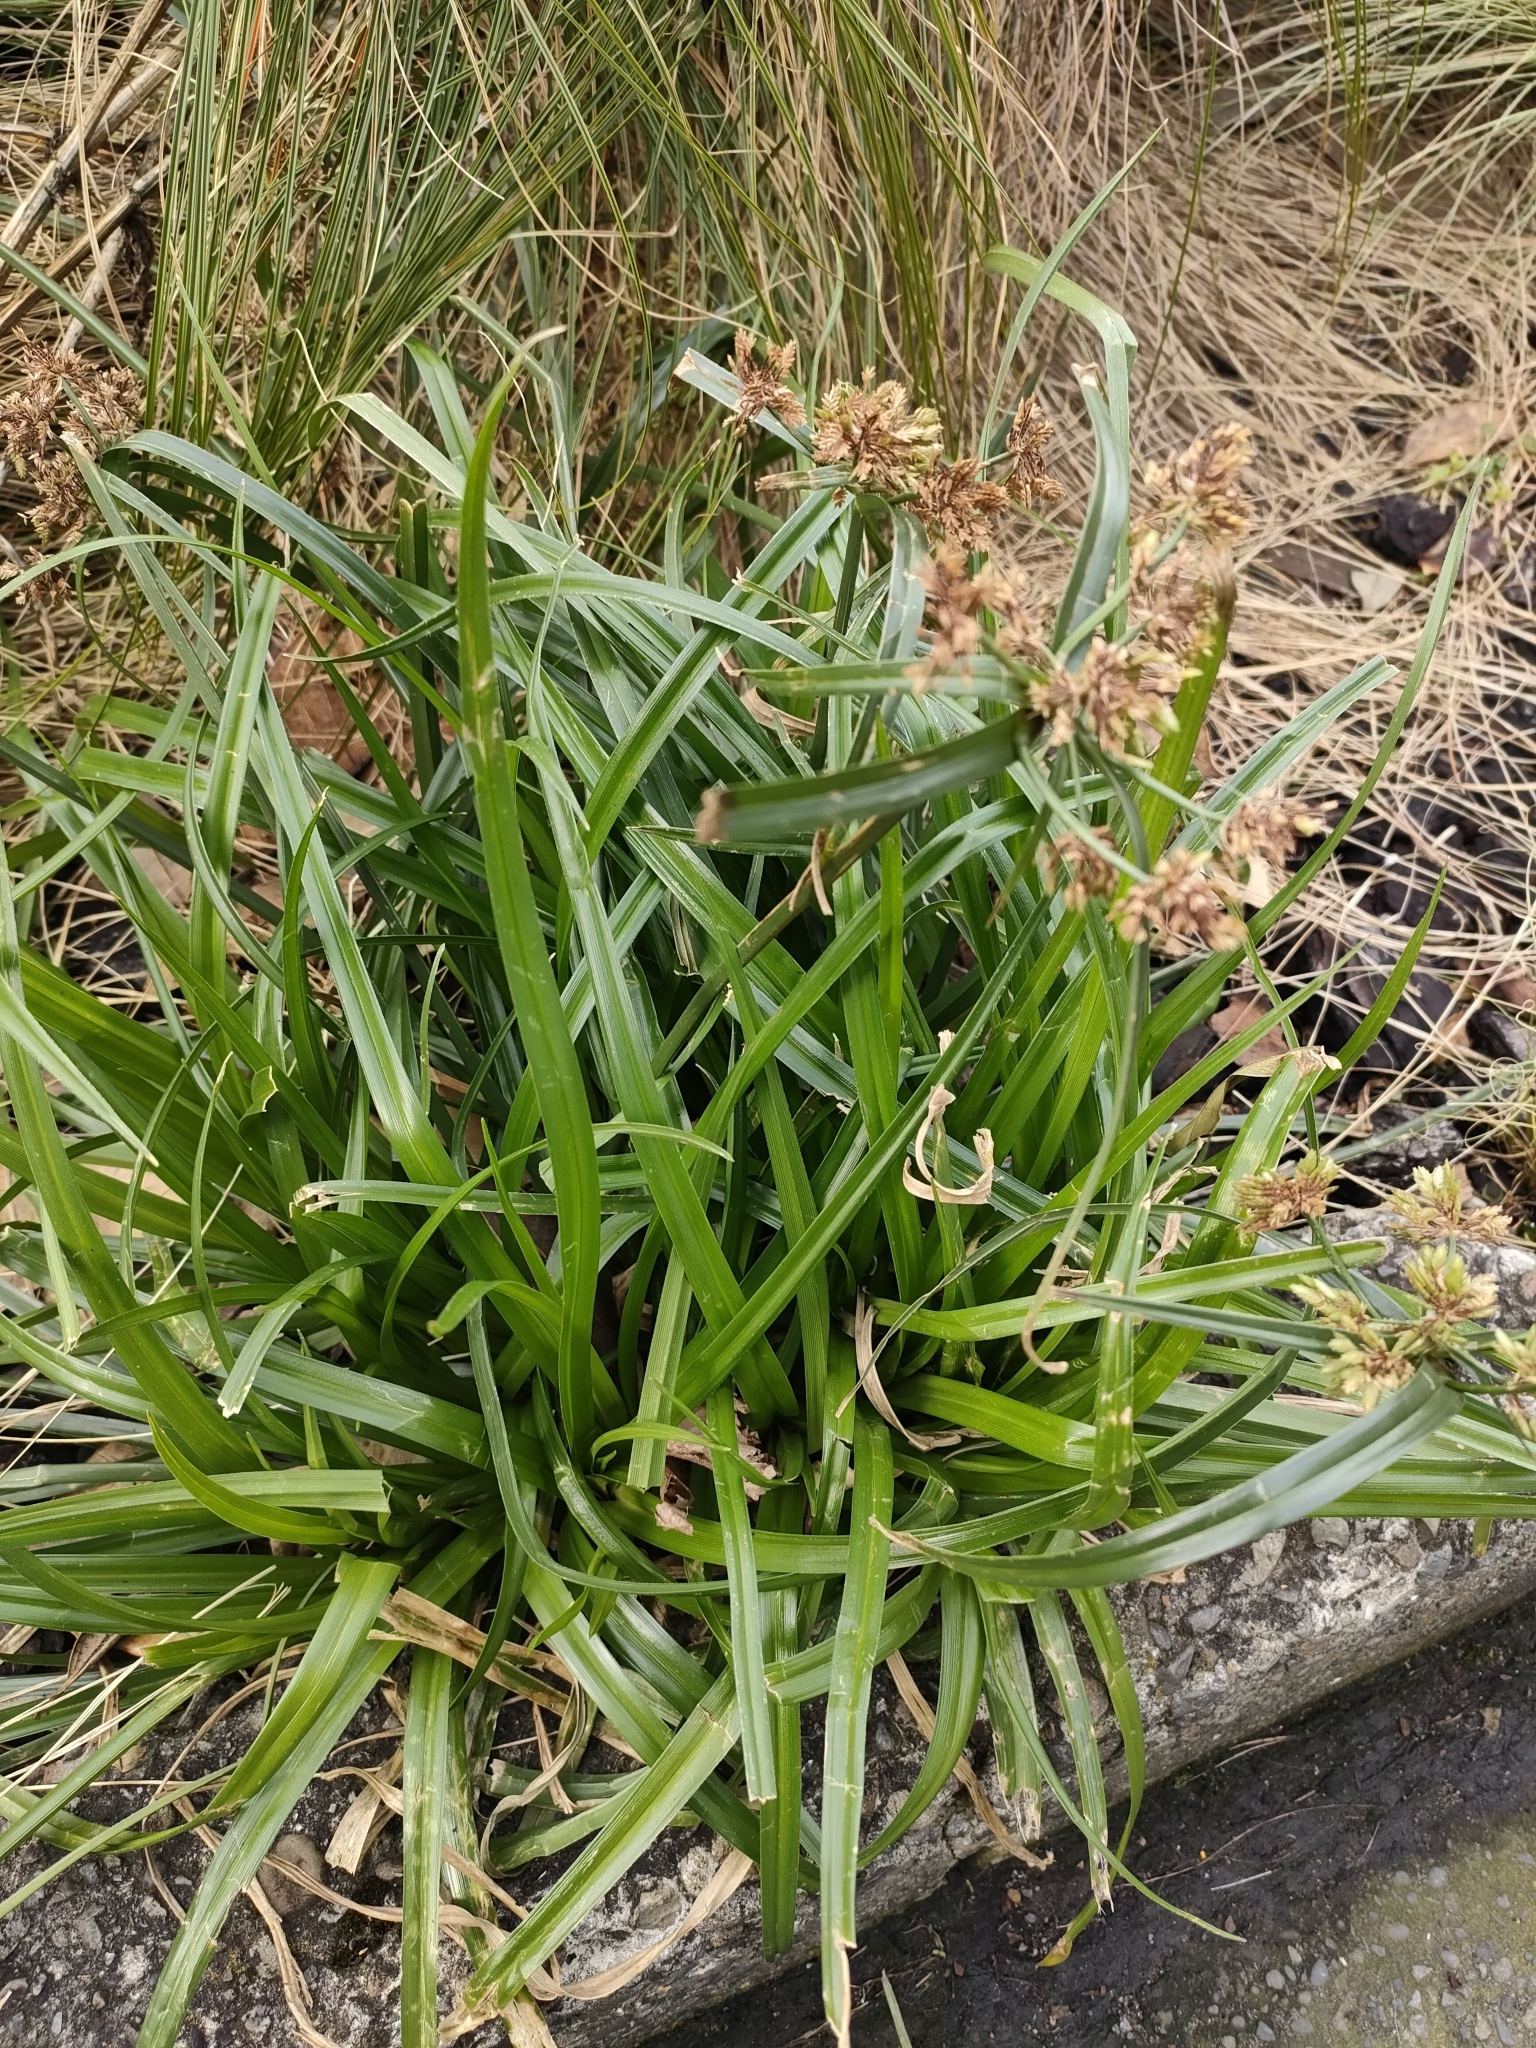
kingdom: Plantae
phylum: Tracheophyta
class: Liliopsida
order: Poales
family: Cyperaceae
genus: Cyperus
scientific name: Cyperus eragrostis
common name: Tall flatsedge
